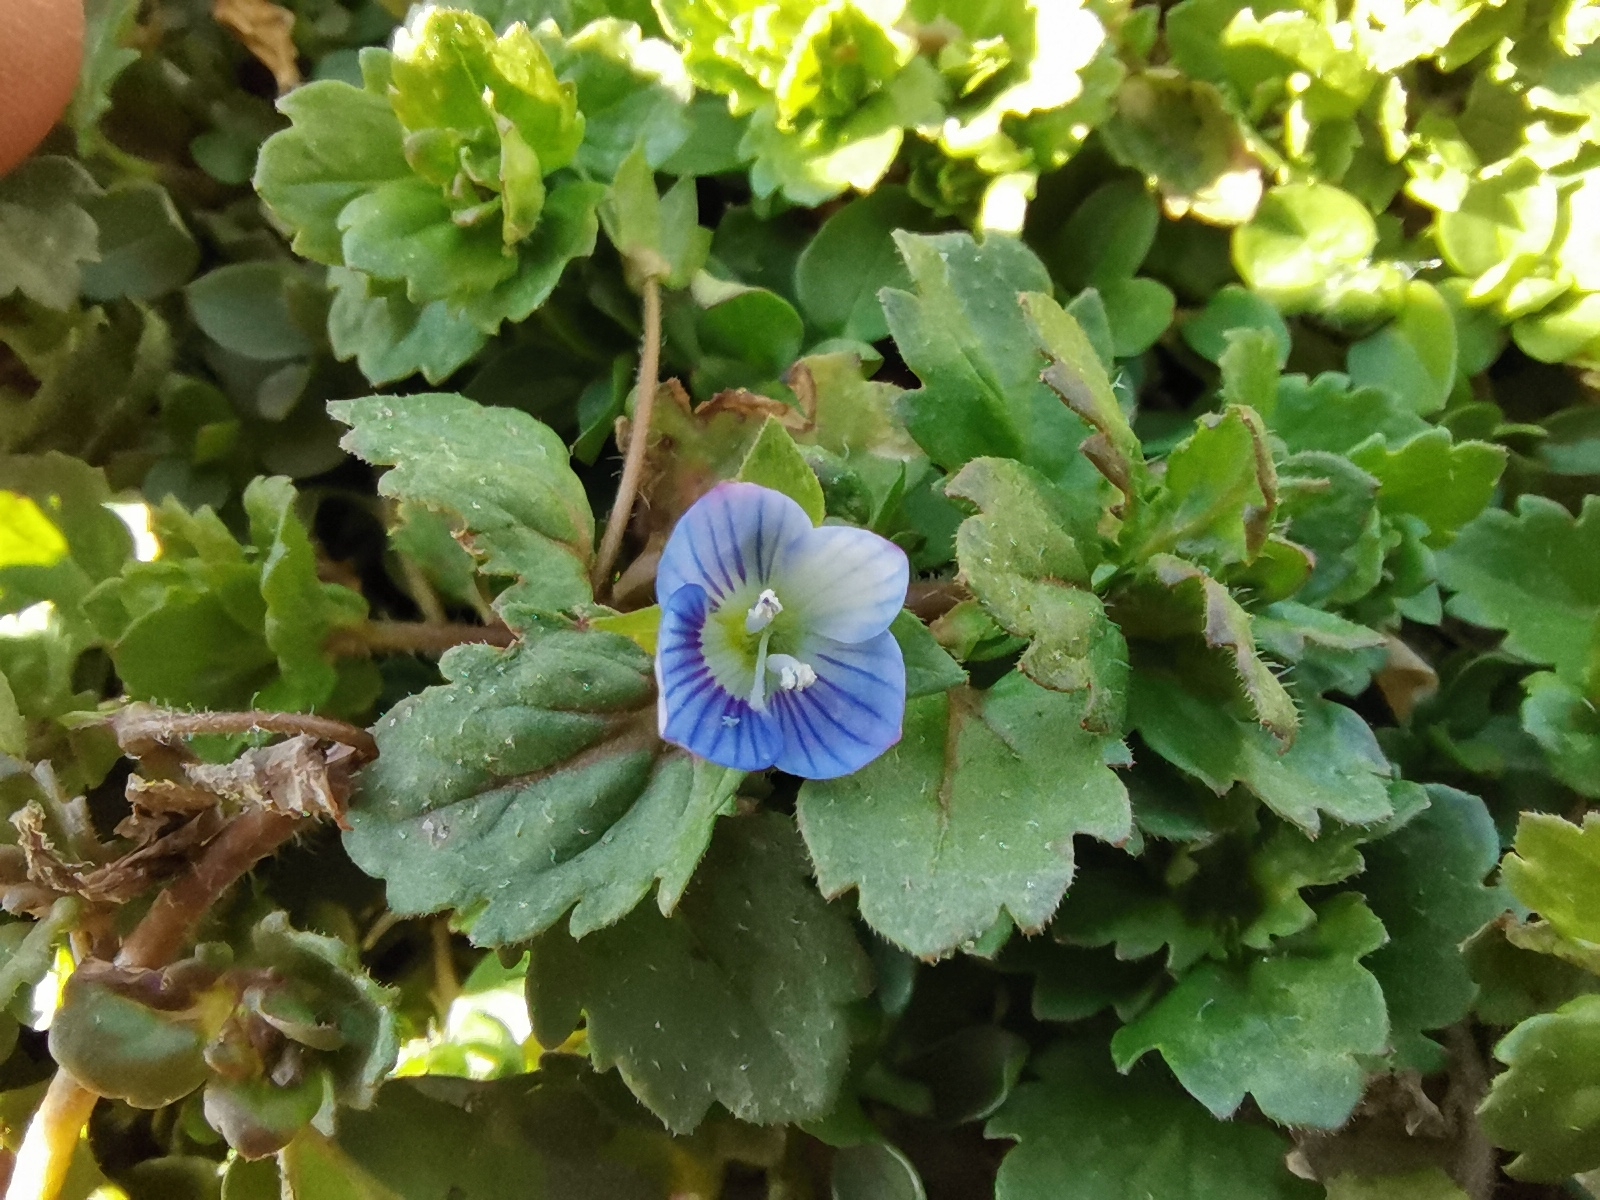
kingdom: Plantae
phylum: Tracheophyta
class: Magnoliopsida
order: Lamiales
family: Plantaginaceae
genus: Veronica
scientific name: Veronica persica
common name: Common field-speedwell
